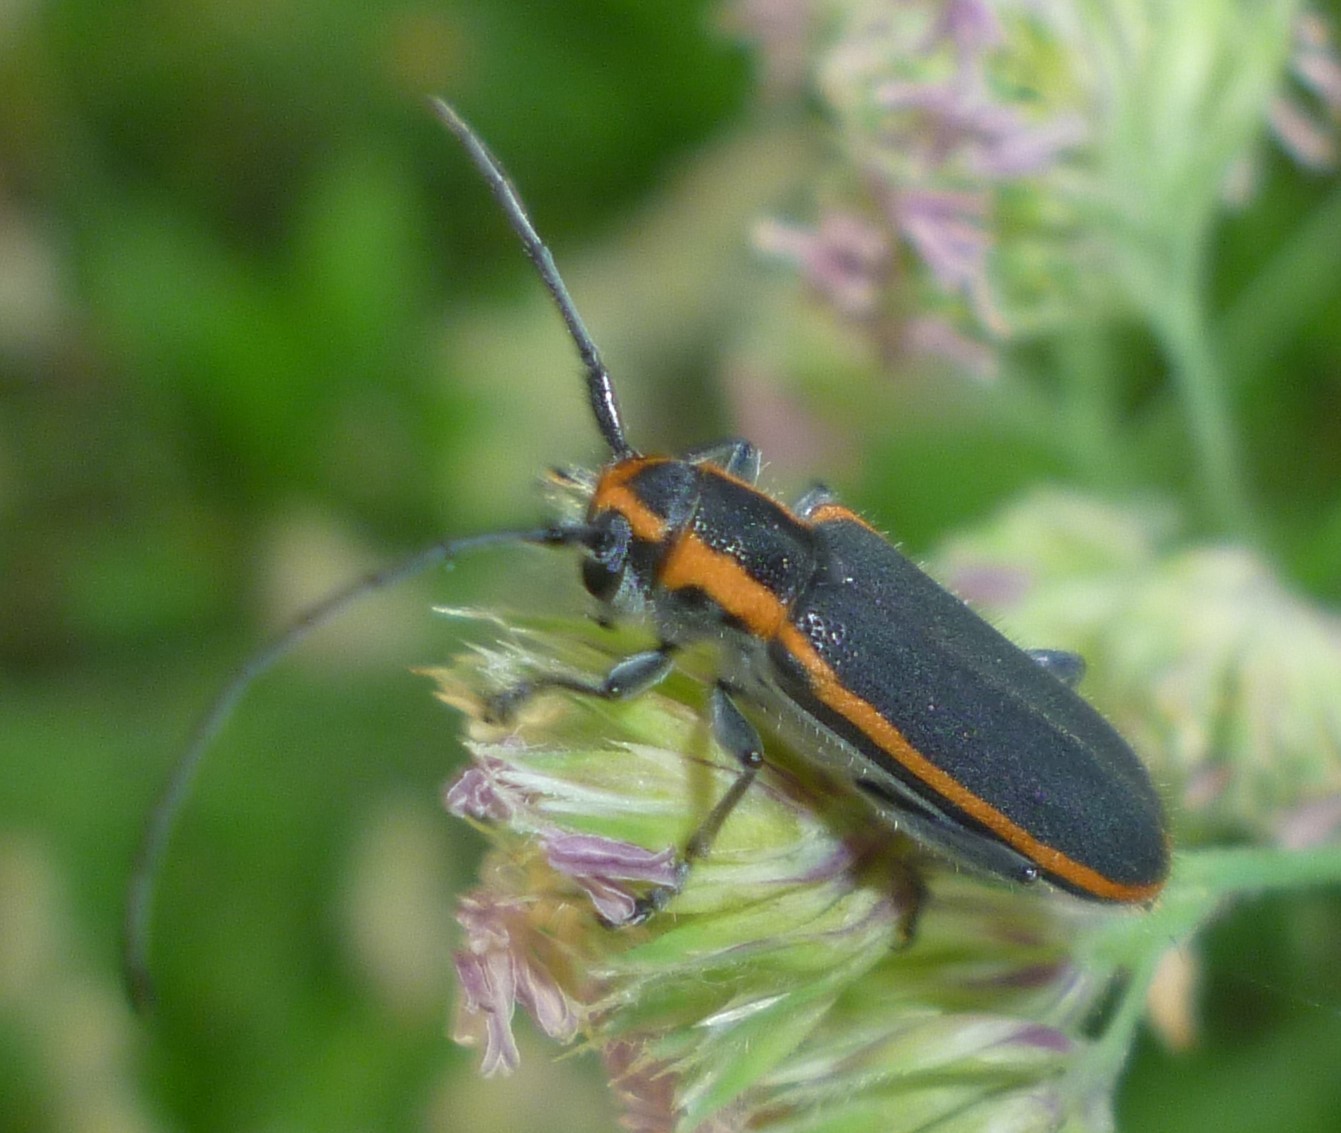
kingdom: Animalia
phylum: Arthropoda
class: Insecta
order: Coleoptera
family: Cerambycidae
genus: Saperda
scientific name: Saperda lateralis
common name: Red-edged saperda
